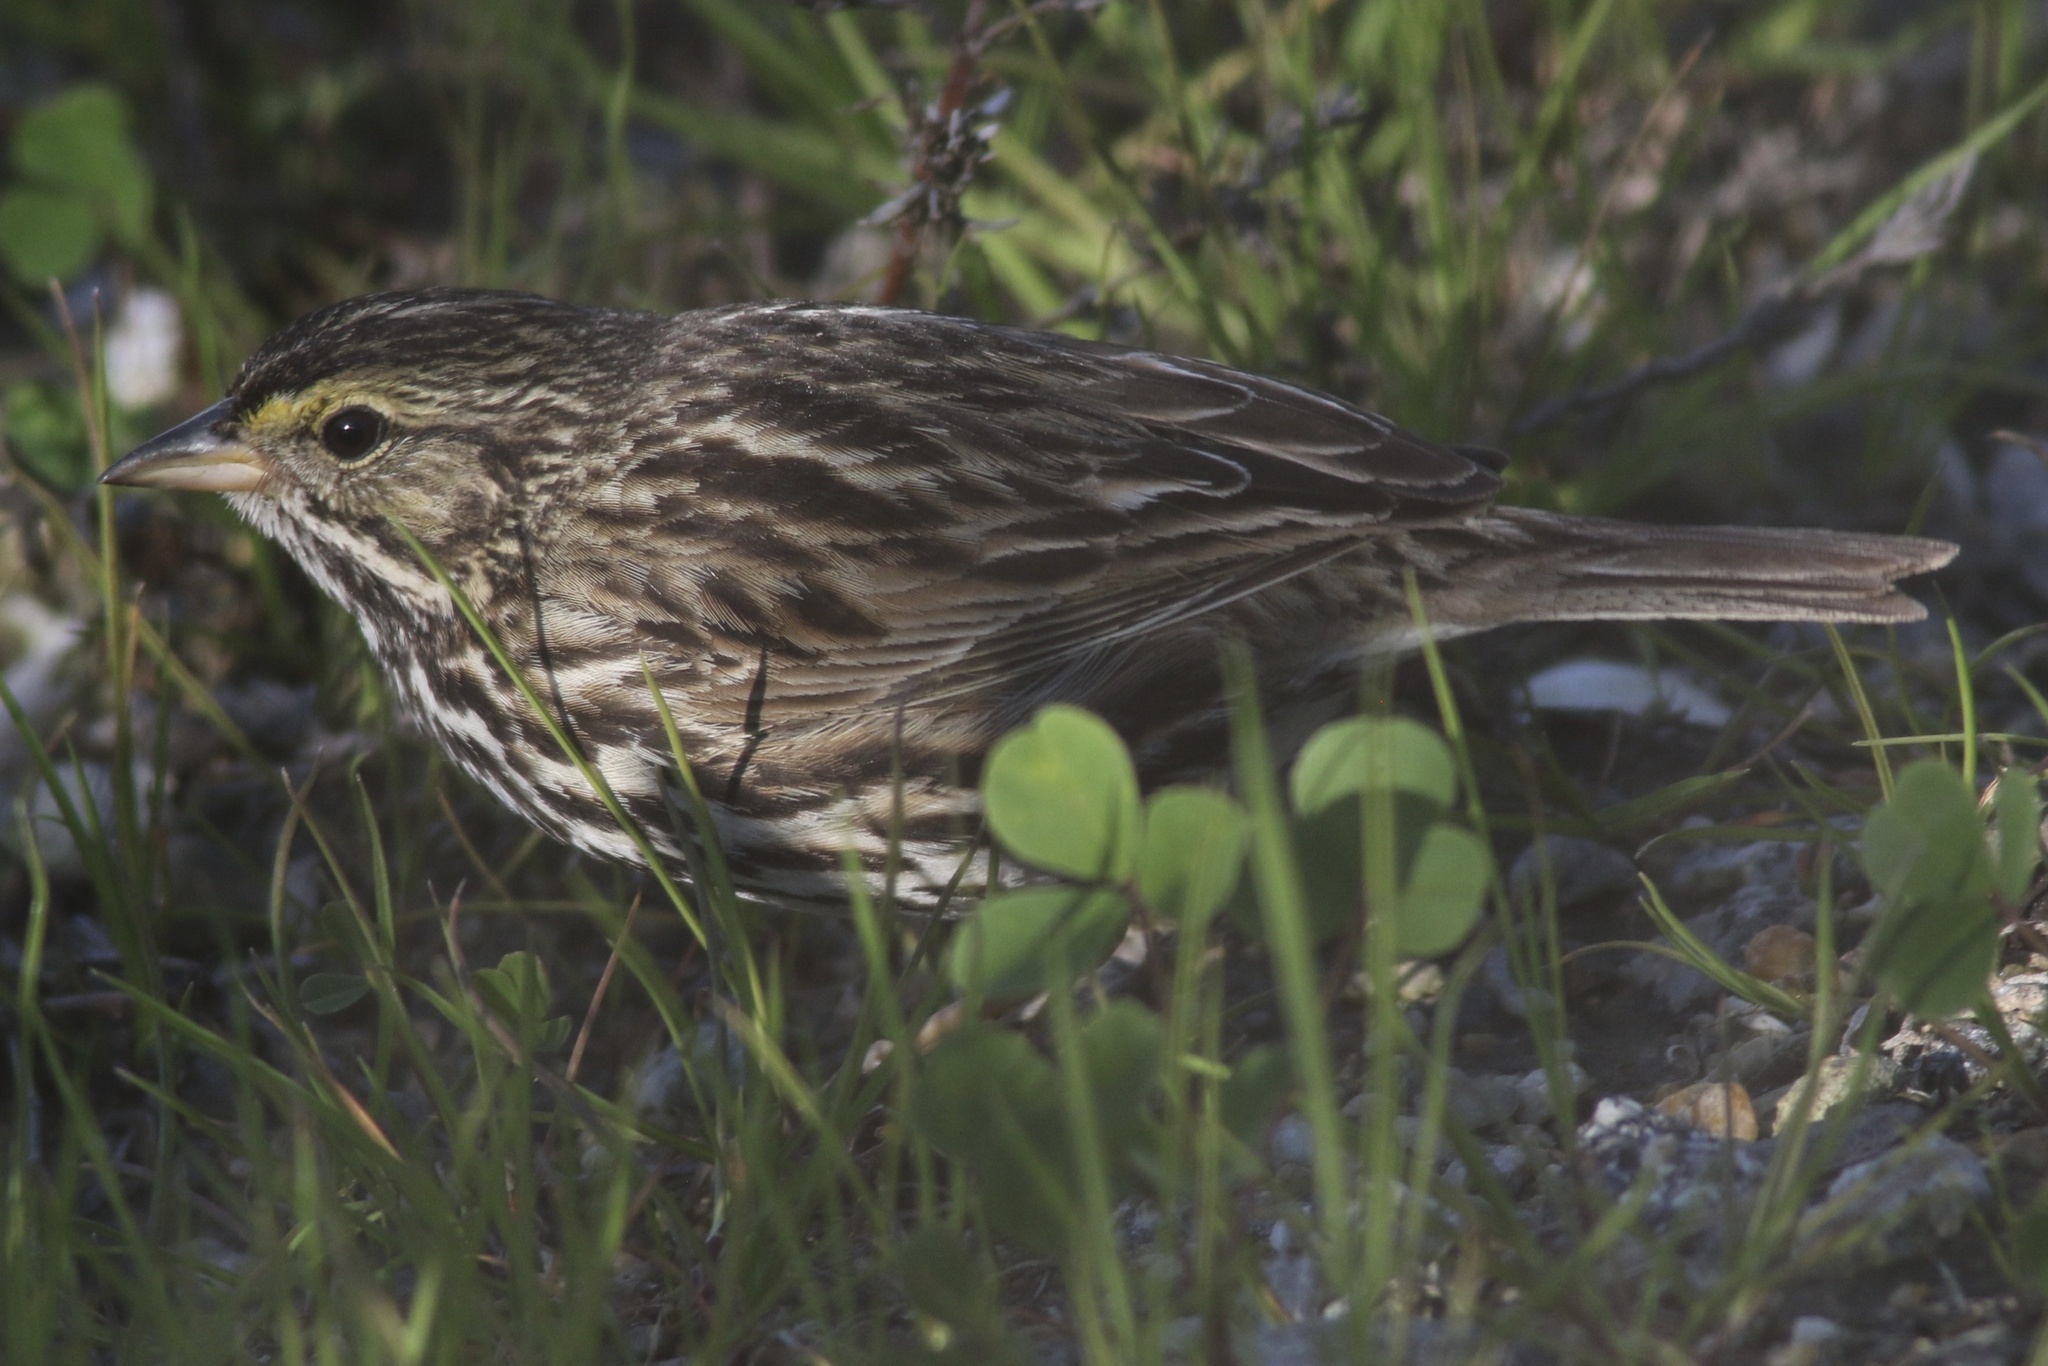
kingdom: Animalia
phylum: Chordata
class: Aves
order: Passeriformes
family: Passerellidae
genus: Passerculus
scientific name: Passerculus sandwichensis
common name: Savannah sparrow
